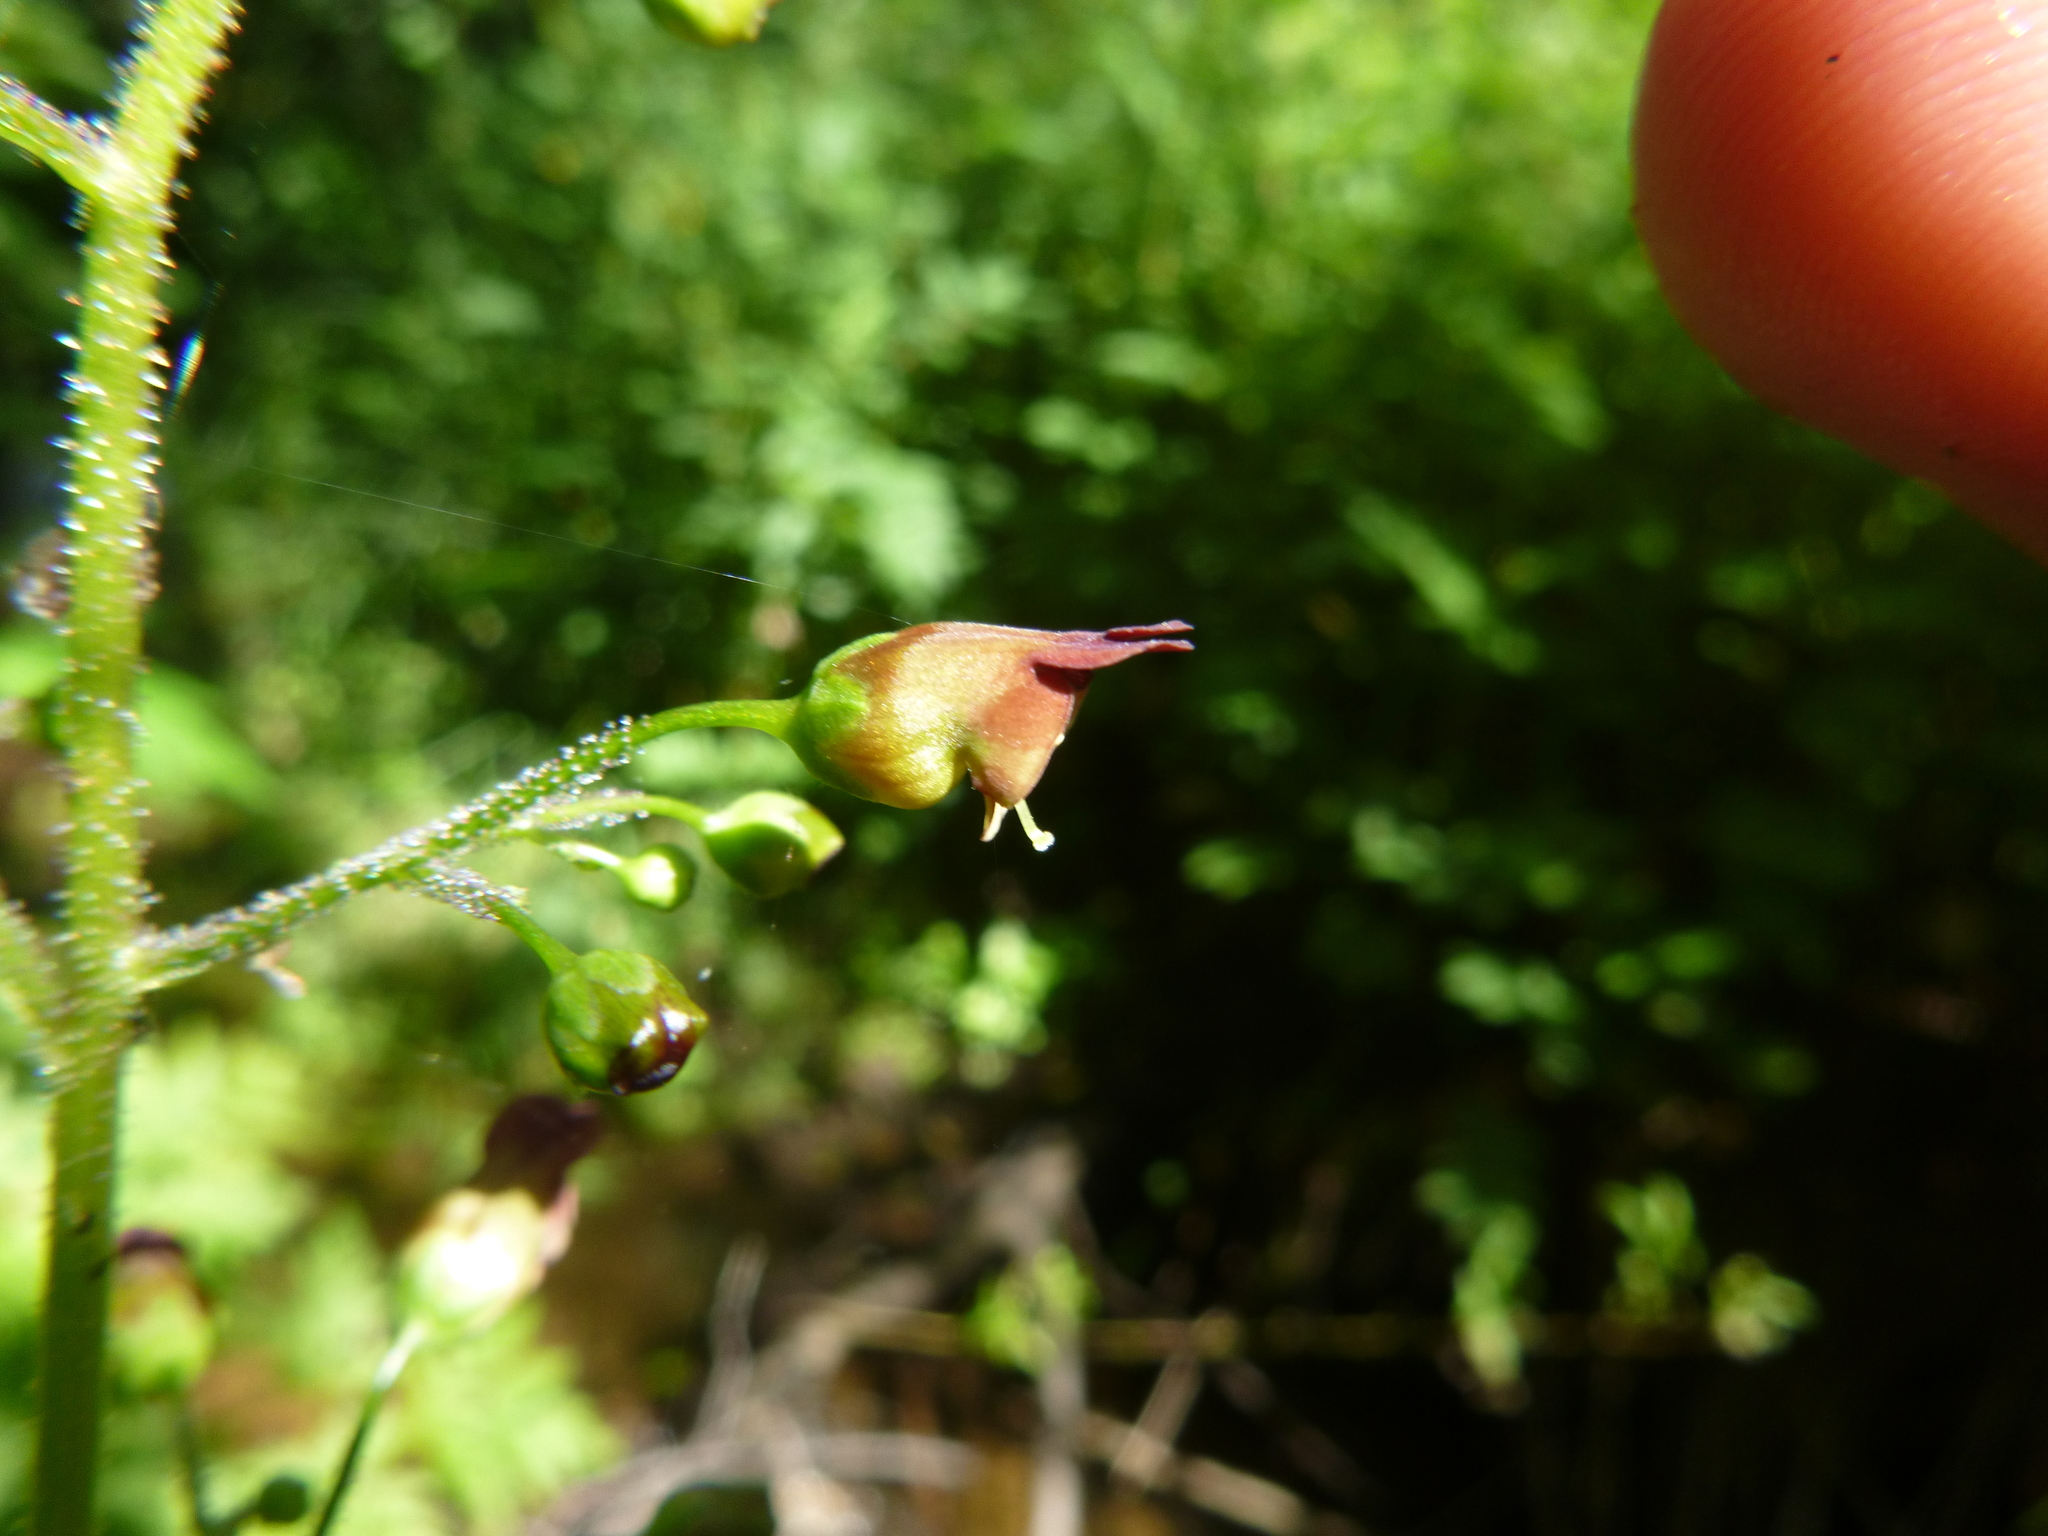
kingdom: Plantae
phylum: Tracheophyta
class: Magnoliopsida
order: Lamiales
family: Scrophulariaceae
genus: Scrophularia
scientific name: Scrophularia nodosa
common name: Common figwort
